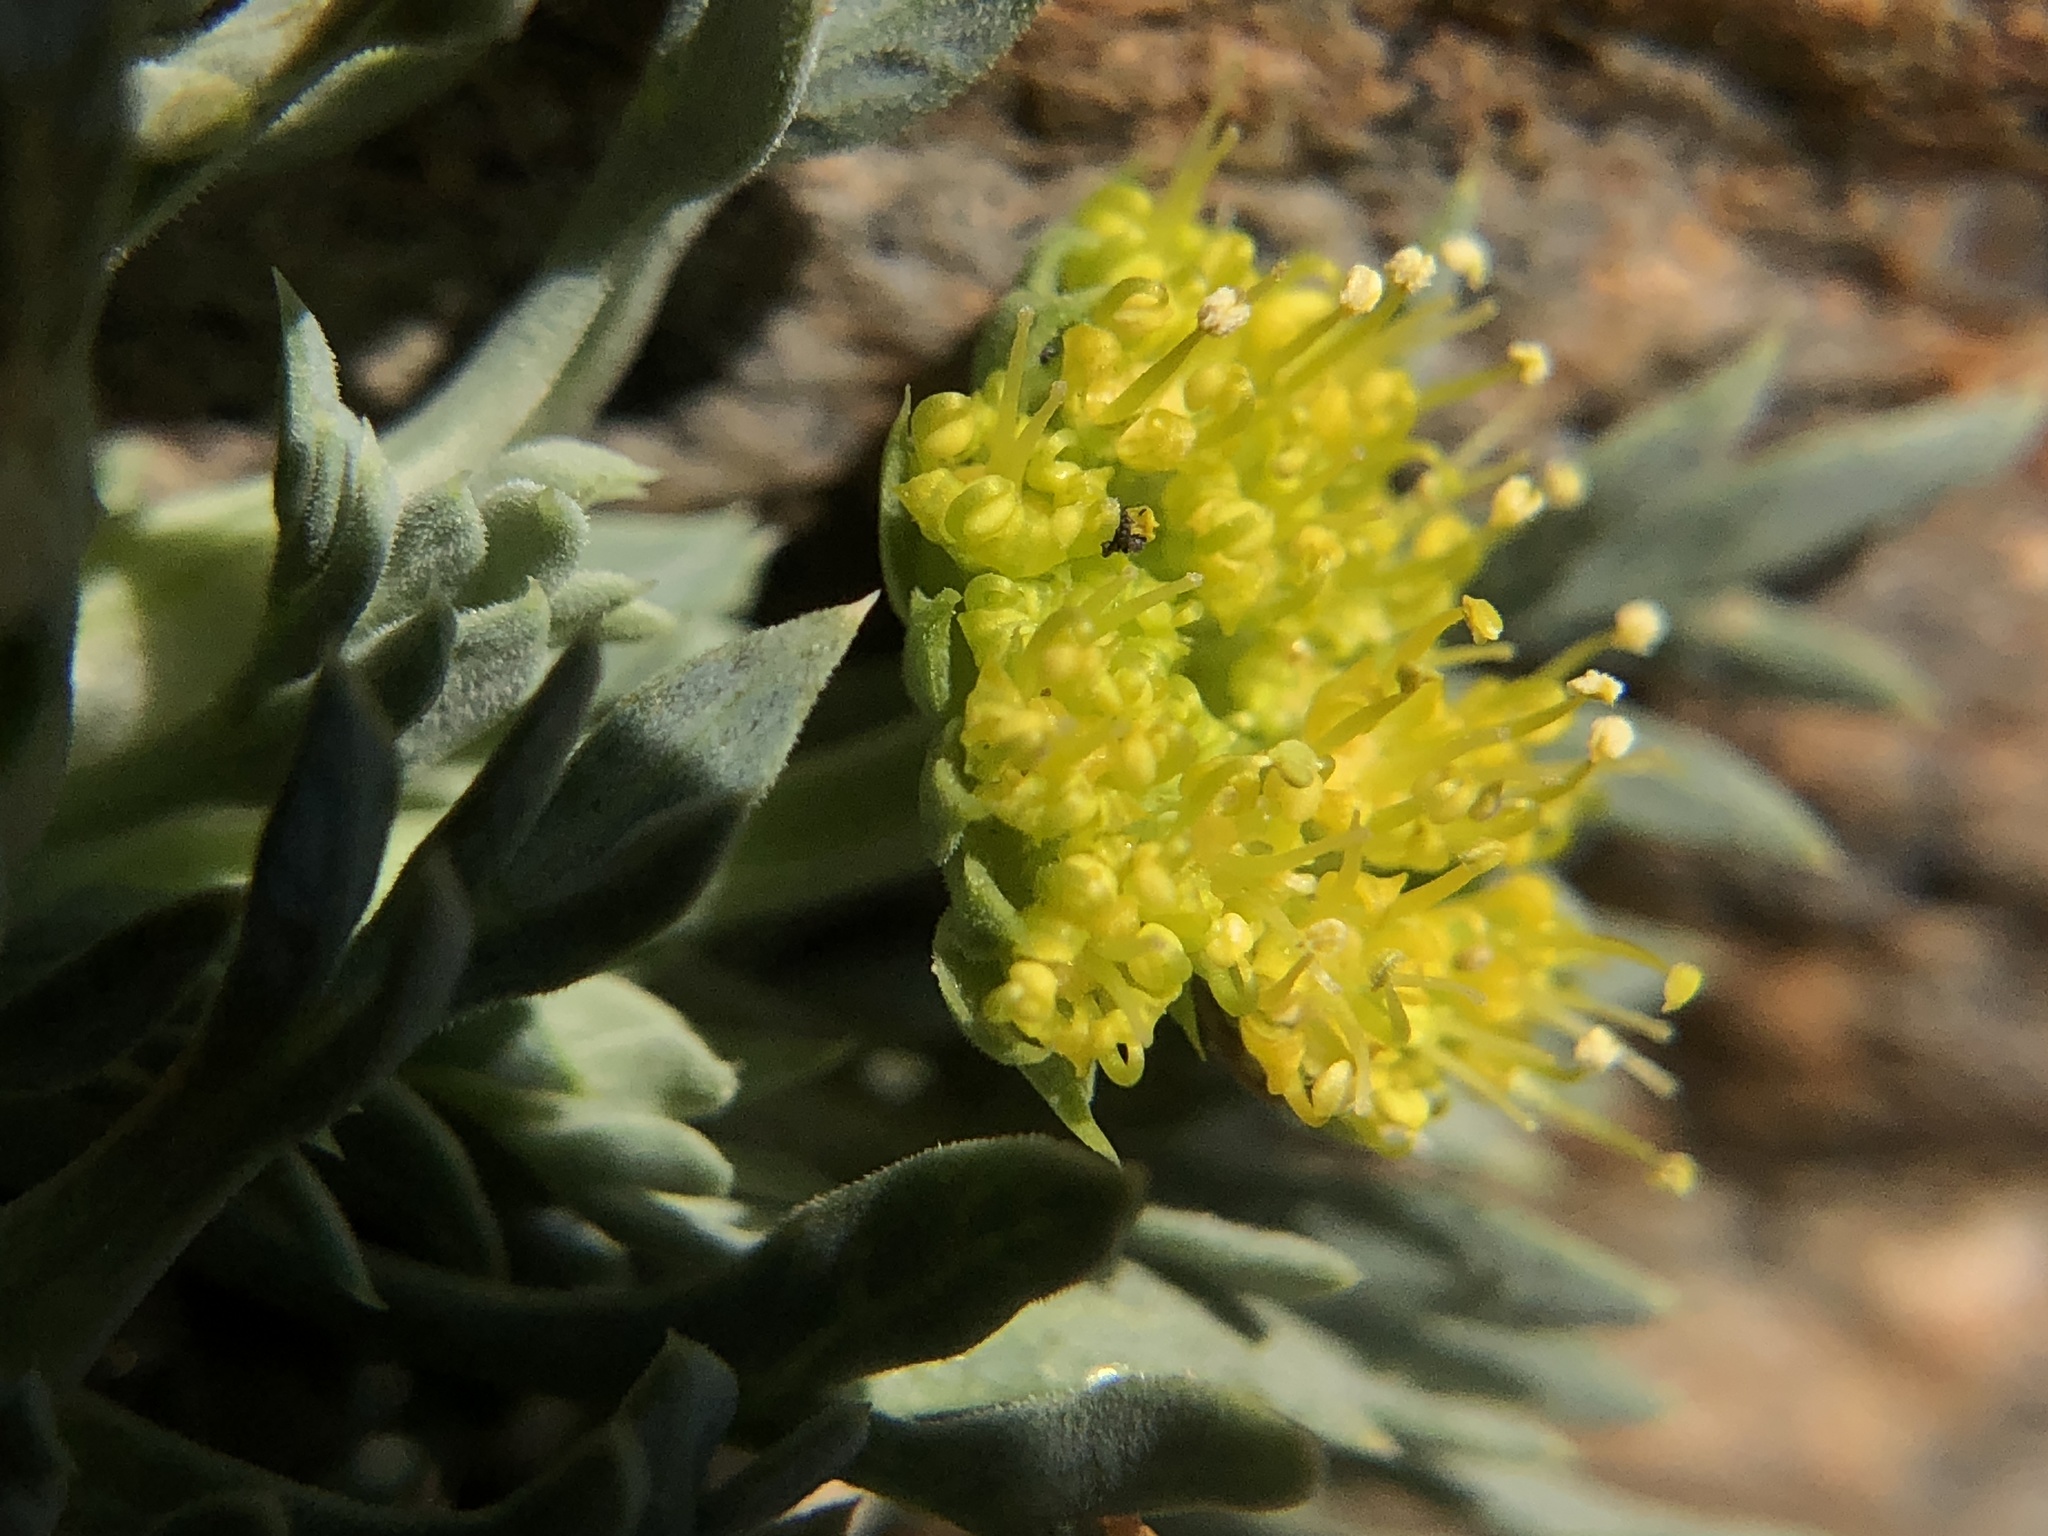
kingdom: Plantae
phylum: Tracheophyta
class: Magnoliopsida
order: Apiales
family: Apiaceae
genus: Podistera
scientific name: Podistera nevadensis
